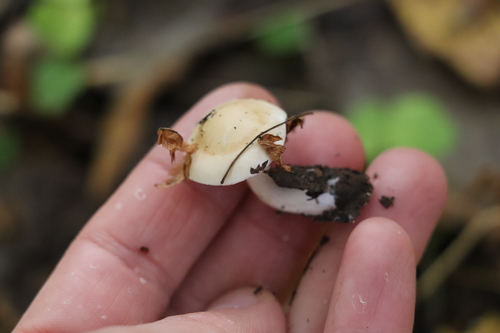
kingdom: Fungi
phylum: Basidiomycota
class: Agaricomycetes
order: Agaricales
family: Hymenogastraceae
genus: Hebeloma
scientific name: Hebeloma leucosarx
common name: Birch poisonpie
